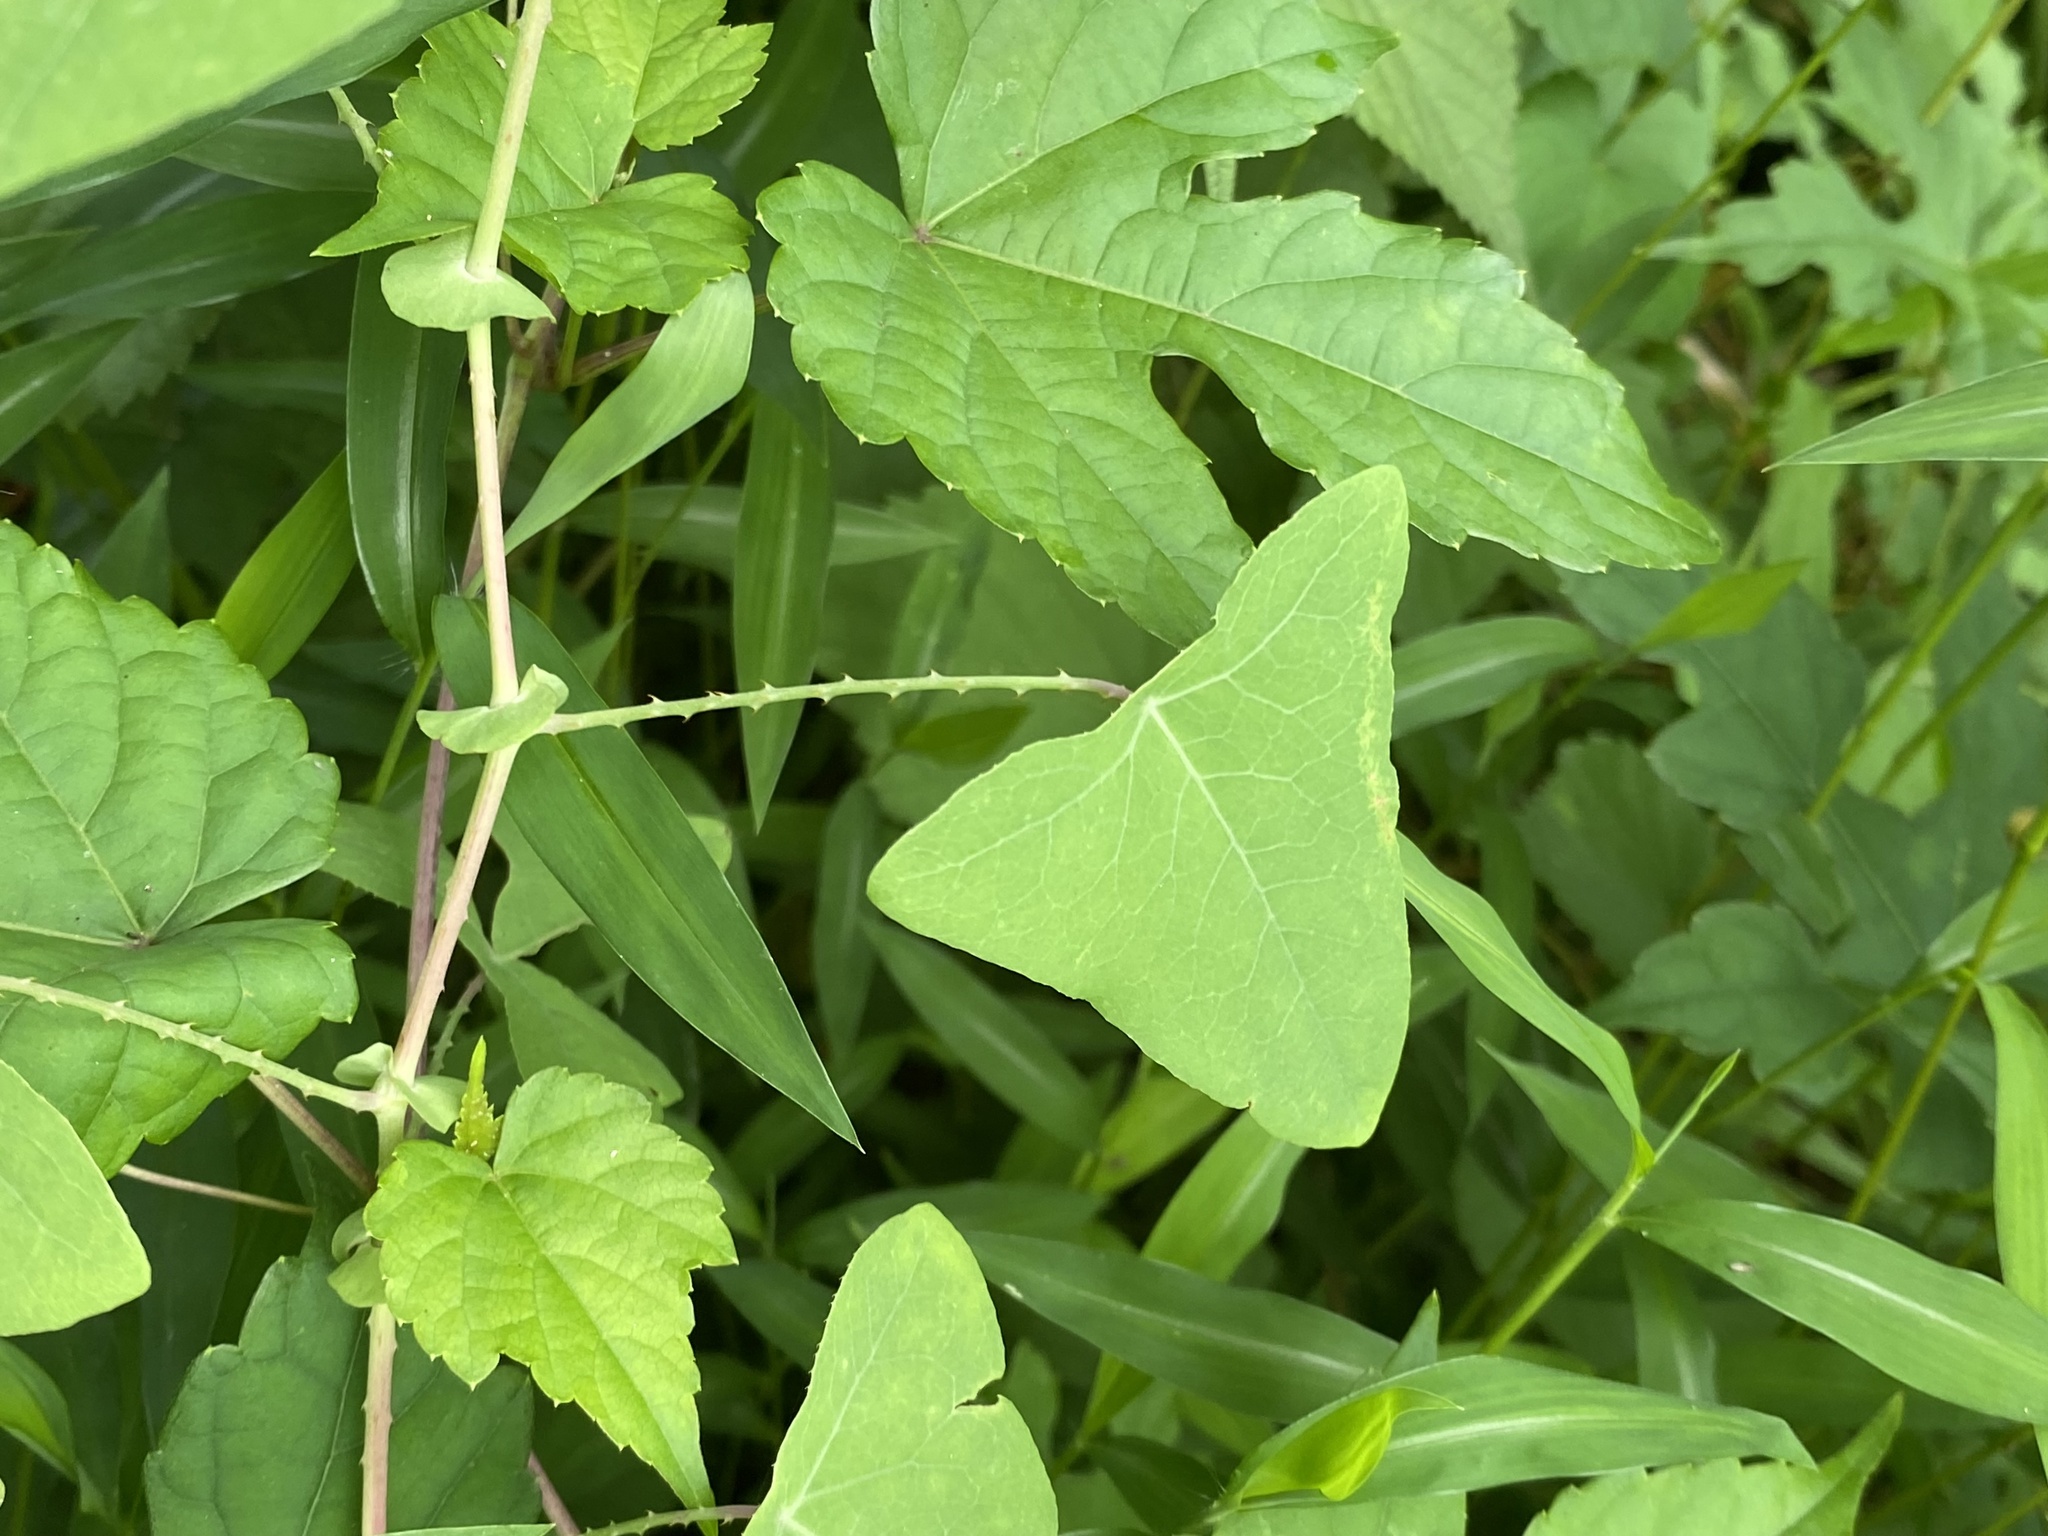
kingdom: Plantae
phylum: Tracheophyta
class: Magnoliopsida
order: Caryophyllales
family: Polygonaceae
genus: Persicaria
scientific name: Persicaria perfoliata
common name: Asiatic tearthumb
